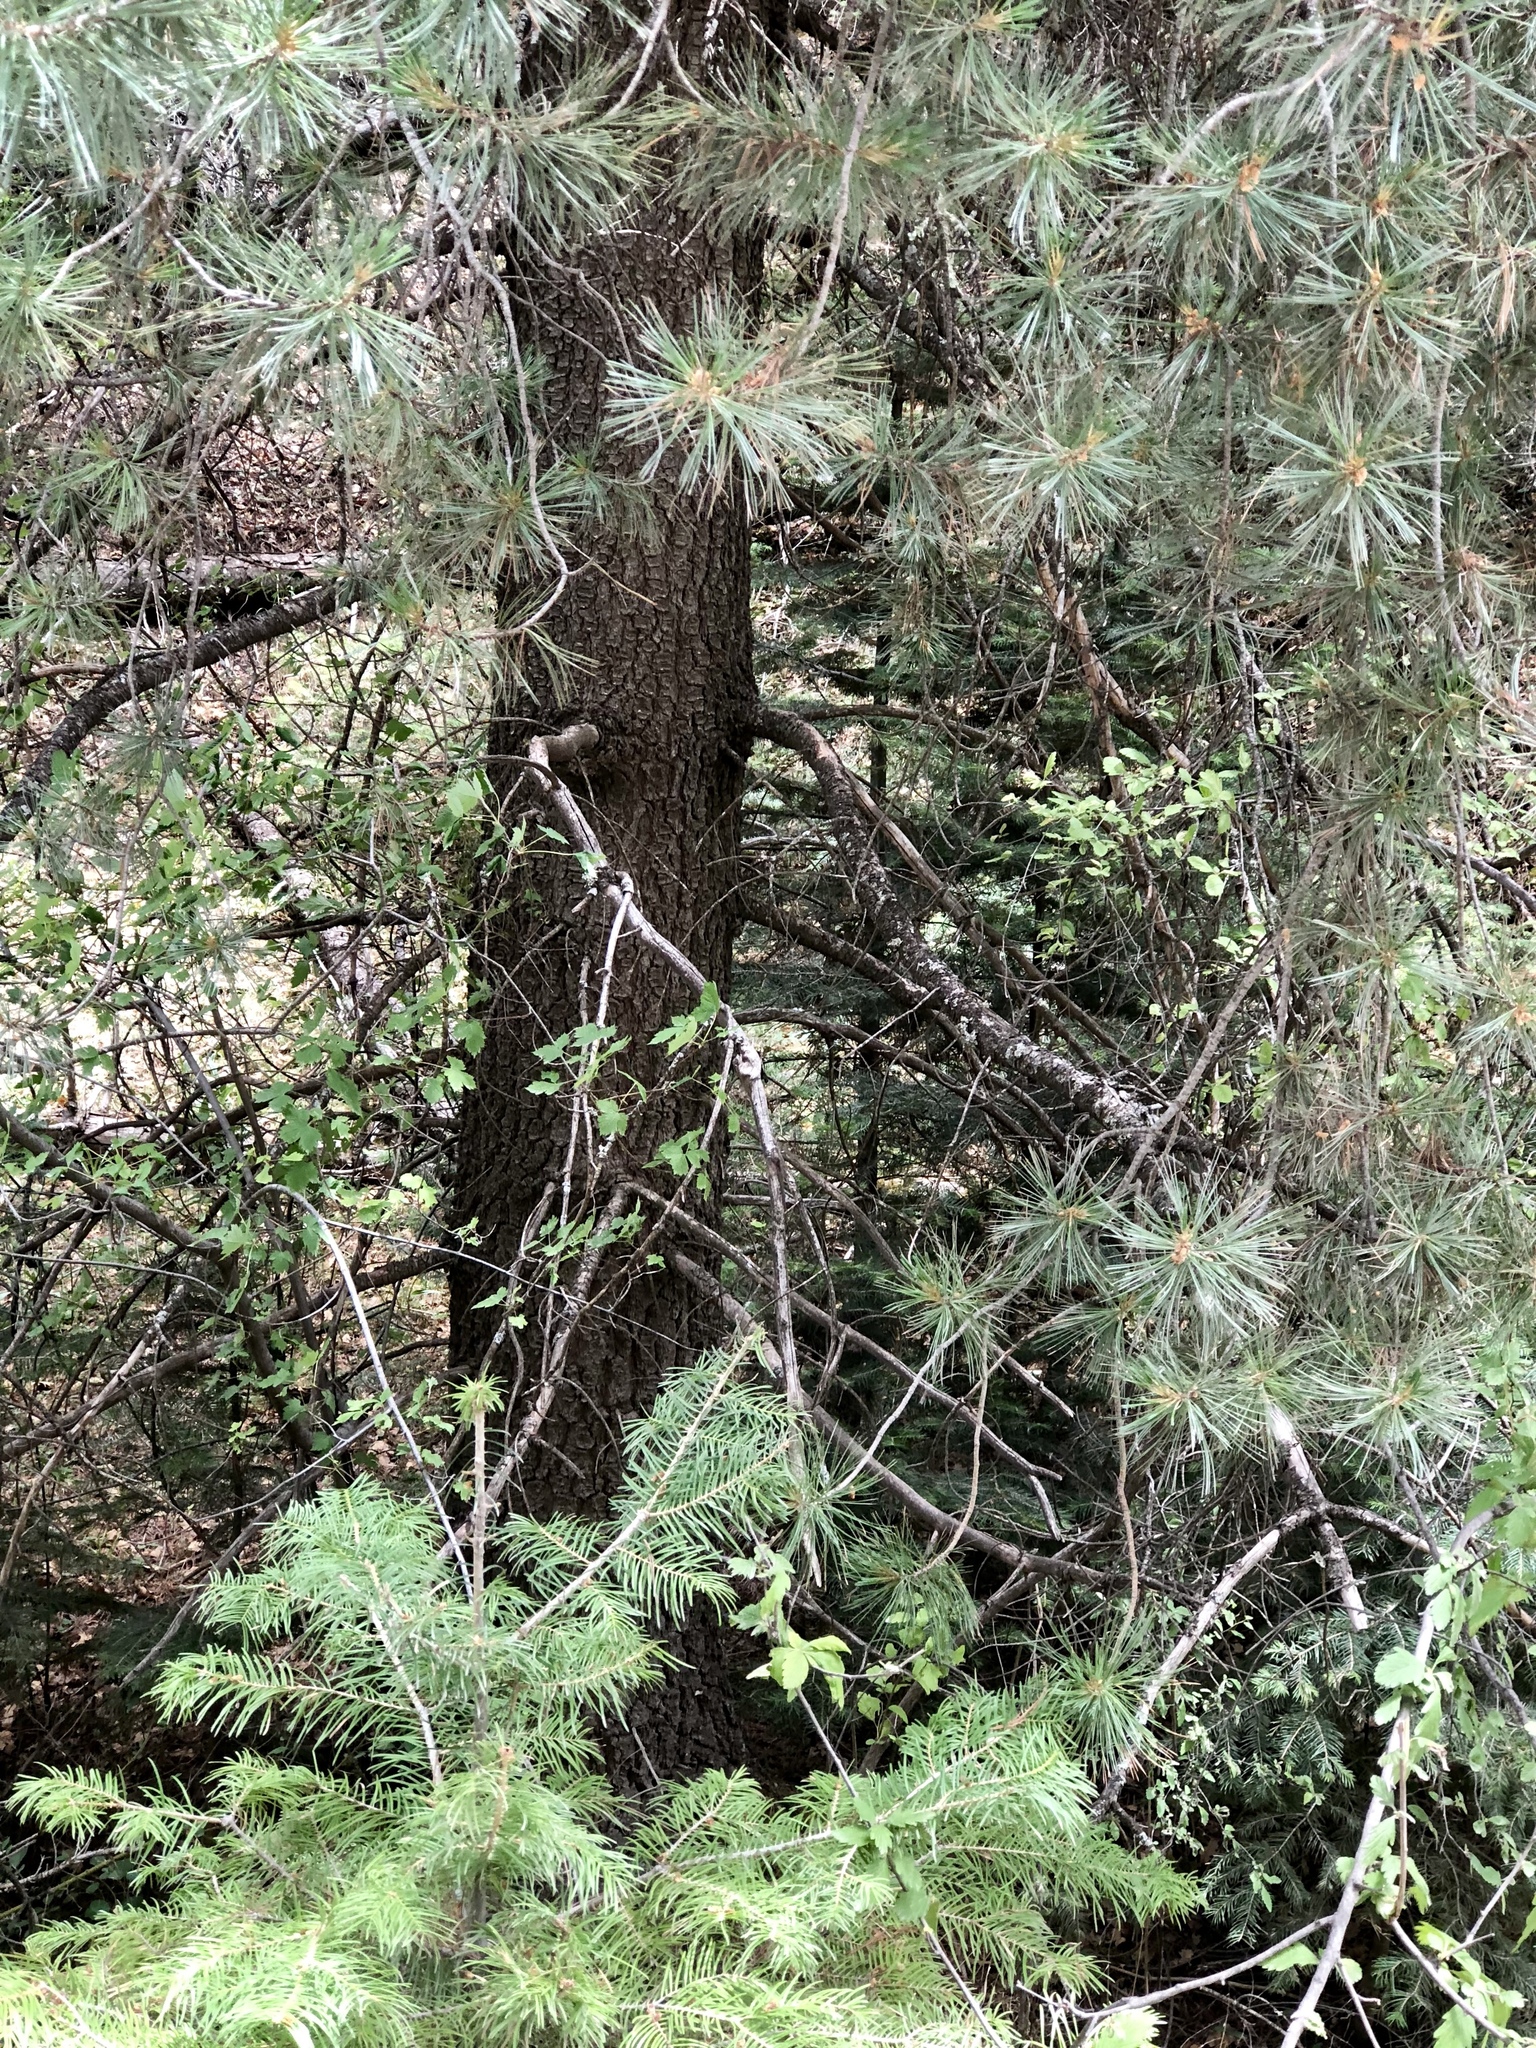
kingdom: Plantae
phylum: Tracheophyta
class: Pinopsida
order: Pinales
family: Pinaceae
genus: Pinus
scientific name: Pinus strobiformis
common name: Southwestern white pine
